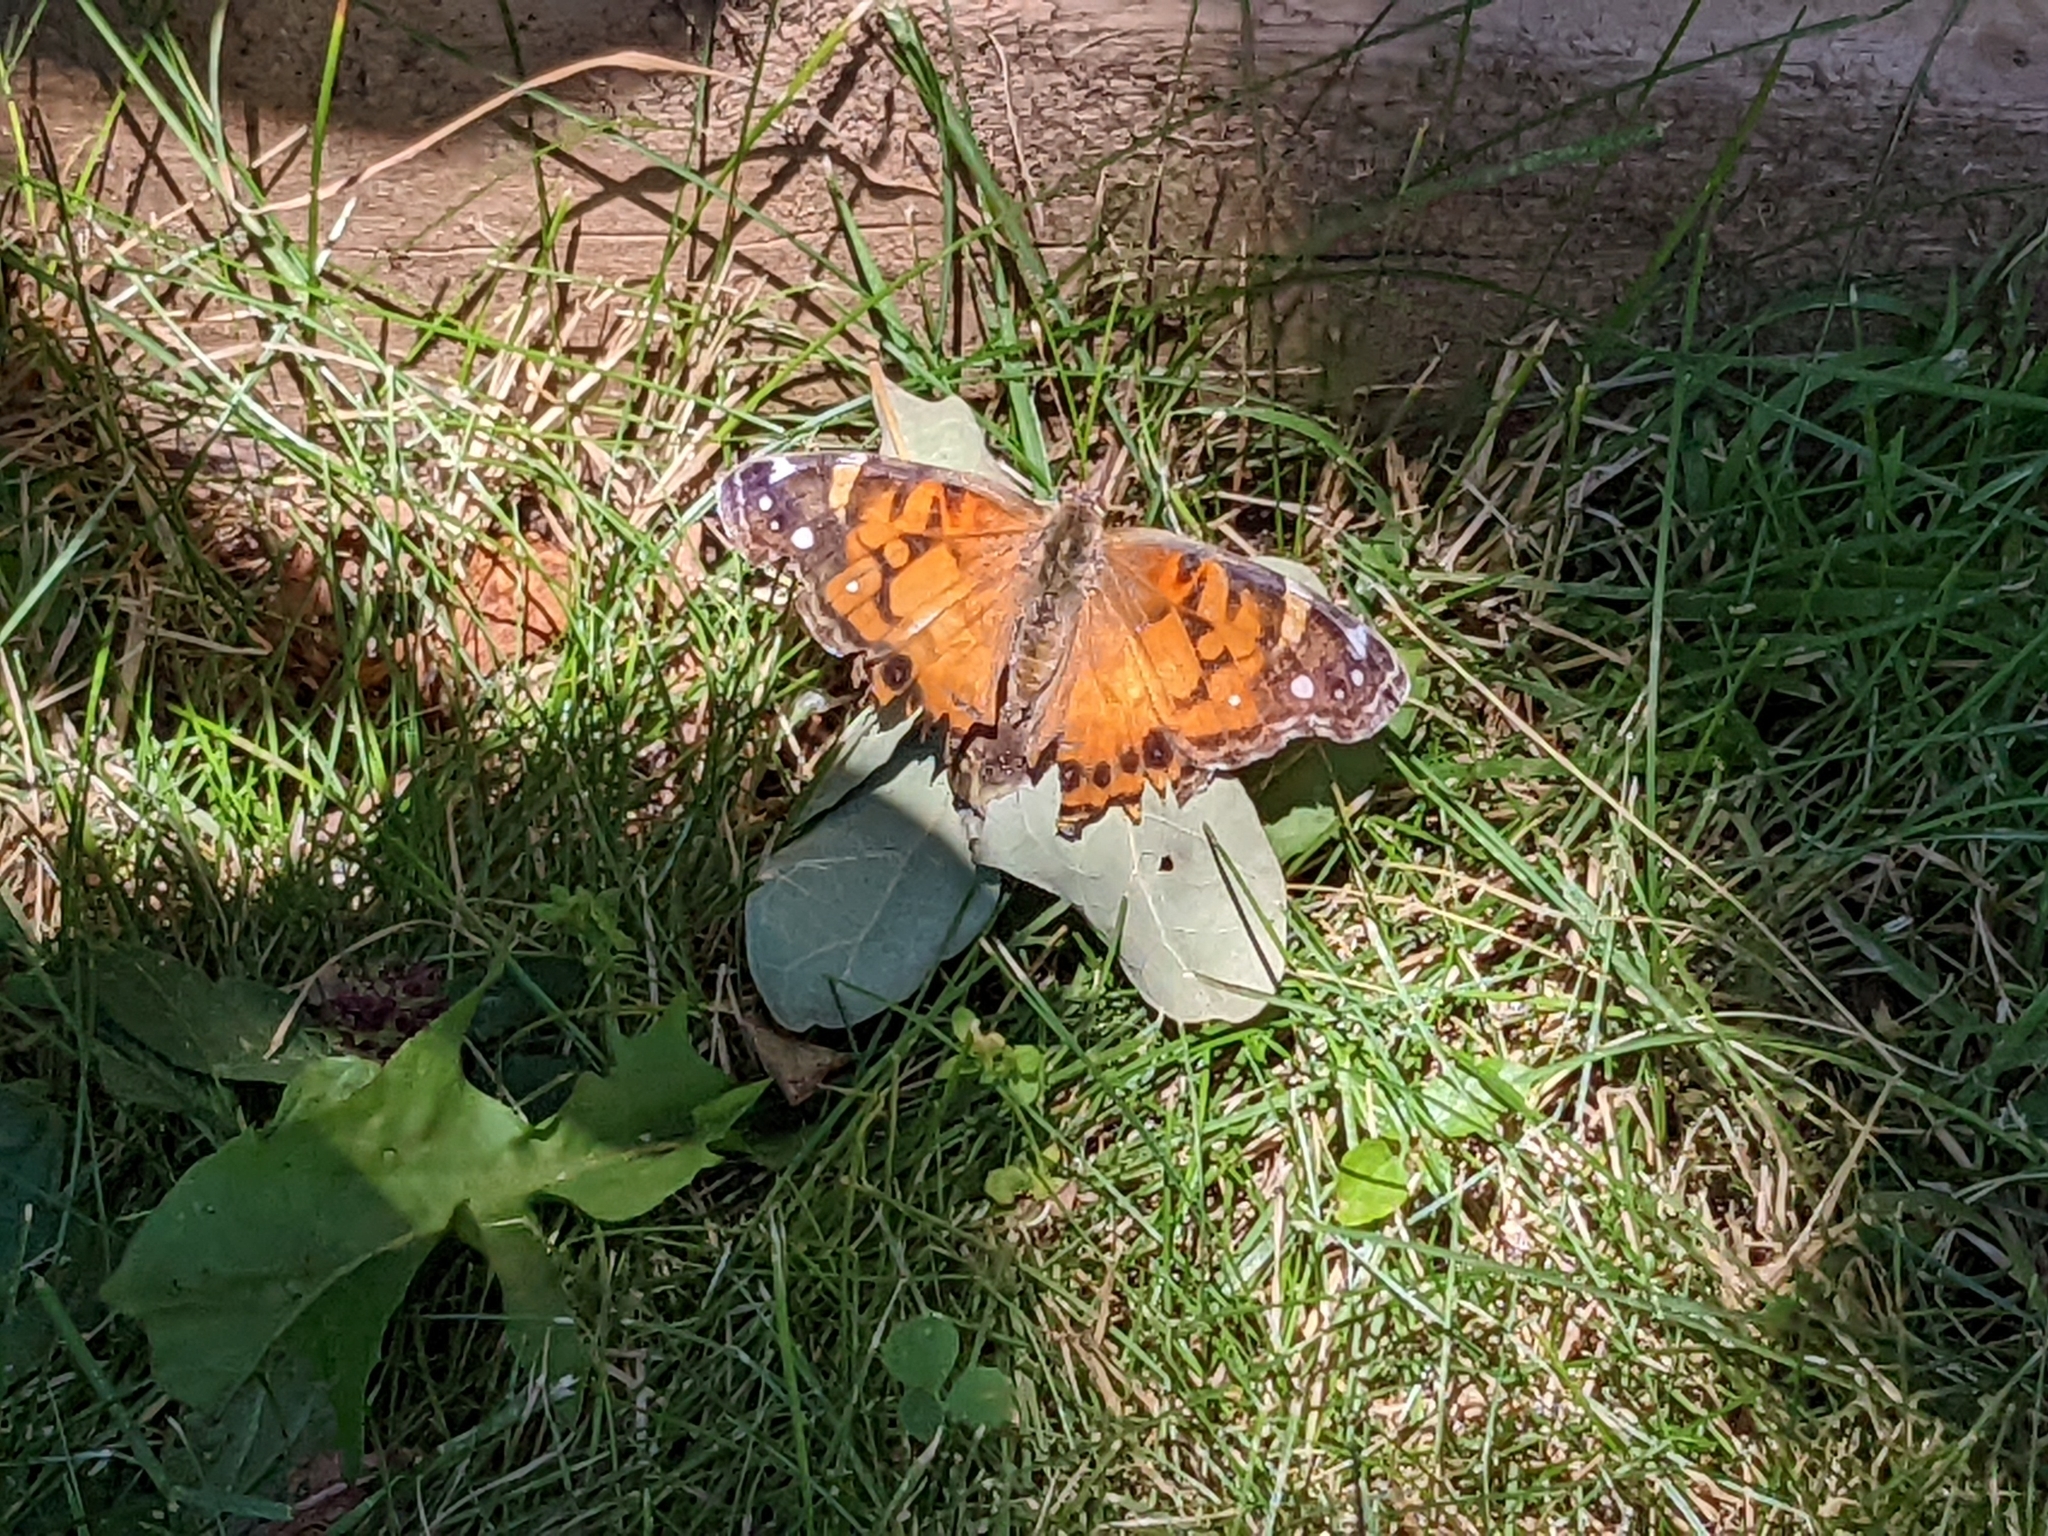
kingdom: Animalia
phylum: Arthropoda
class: Insecta
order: Lepidoptera
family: Nymphalidae
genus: Vanessa
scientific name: Vanessa virginiensis
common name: American lady
